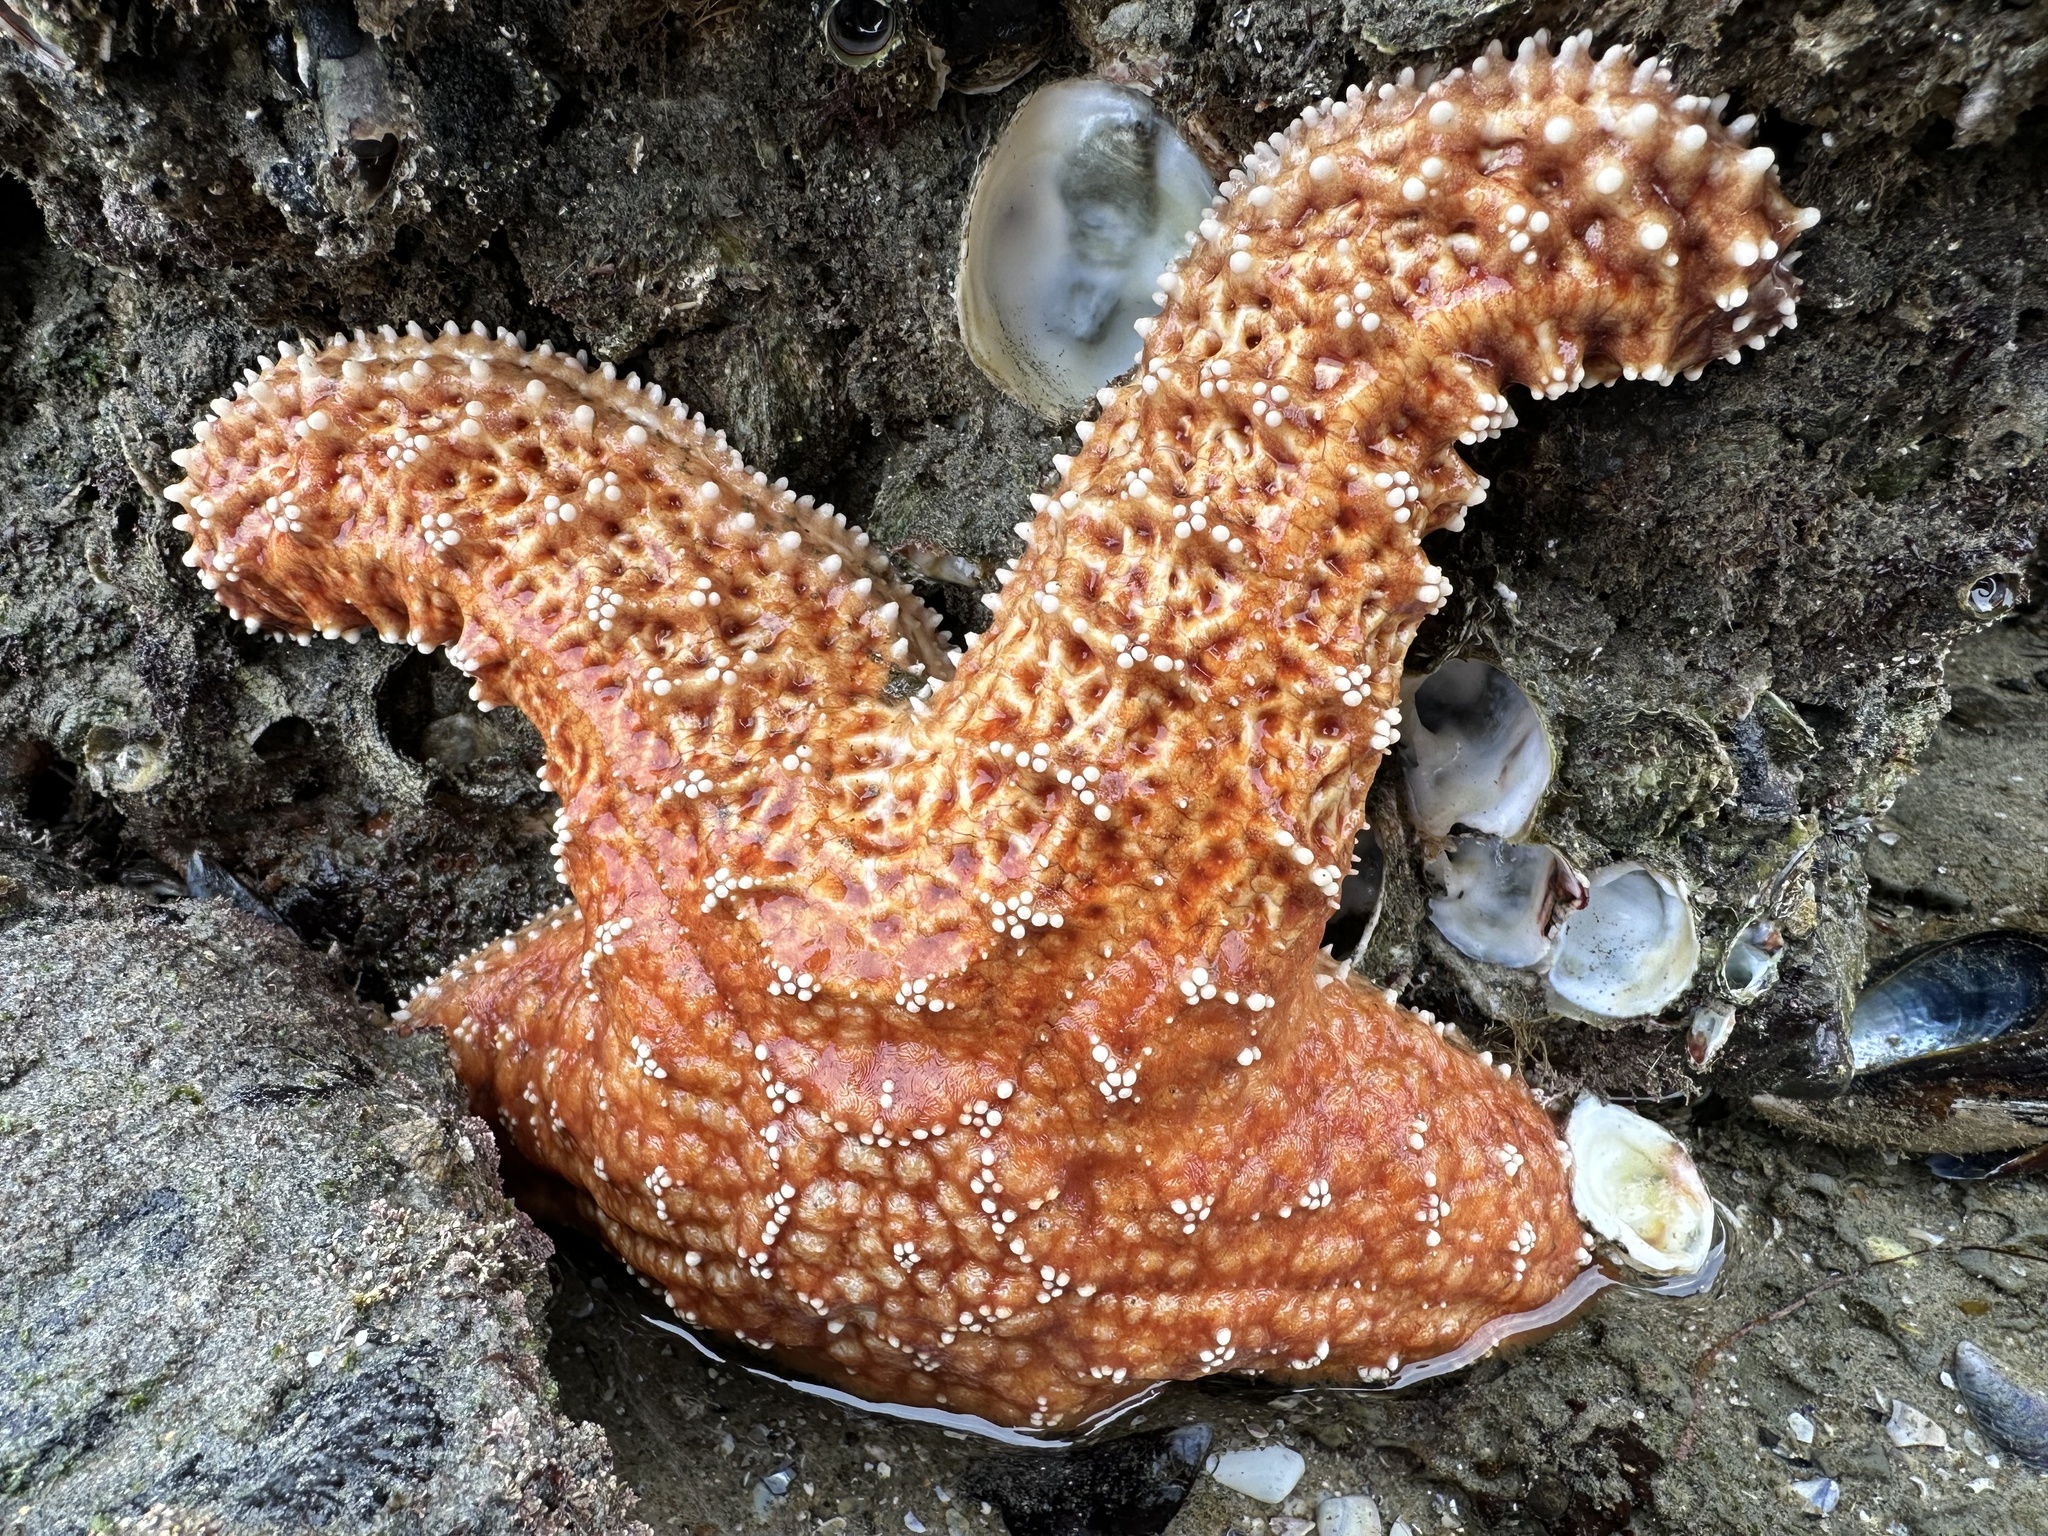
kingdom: Animalia
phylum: Echinodermata
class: Asteroidea
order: Forcipulatida
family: Asteriidae
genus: Pisaster
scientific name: Pisaster ochraceus
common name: Ochre stars
